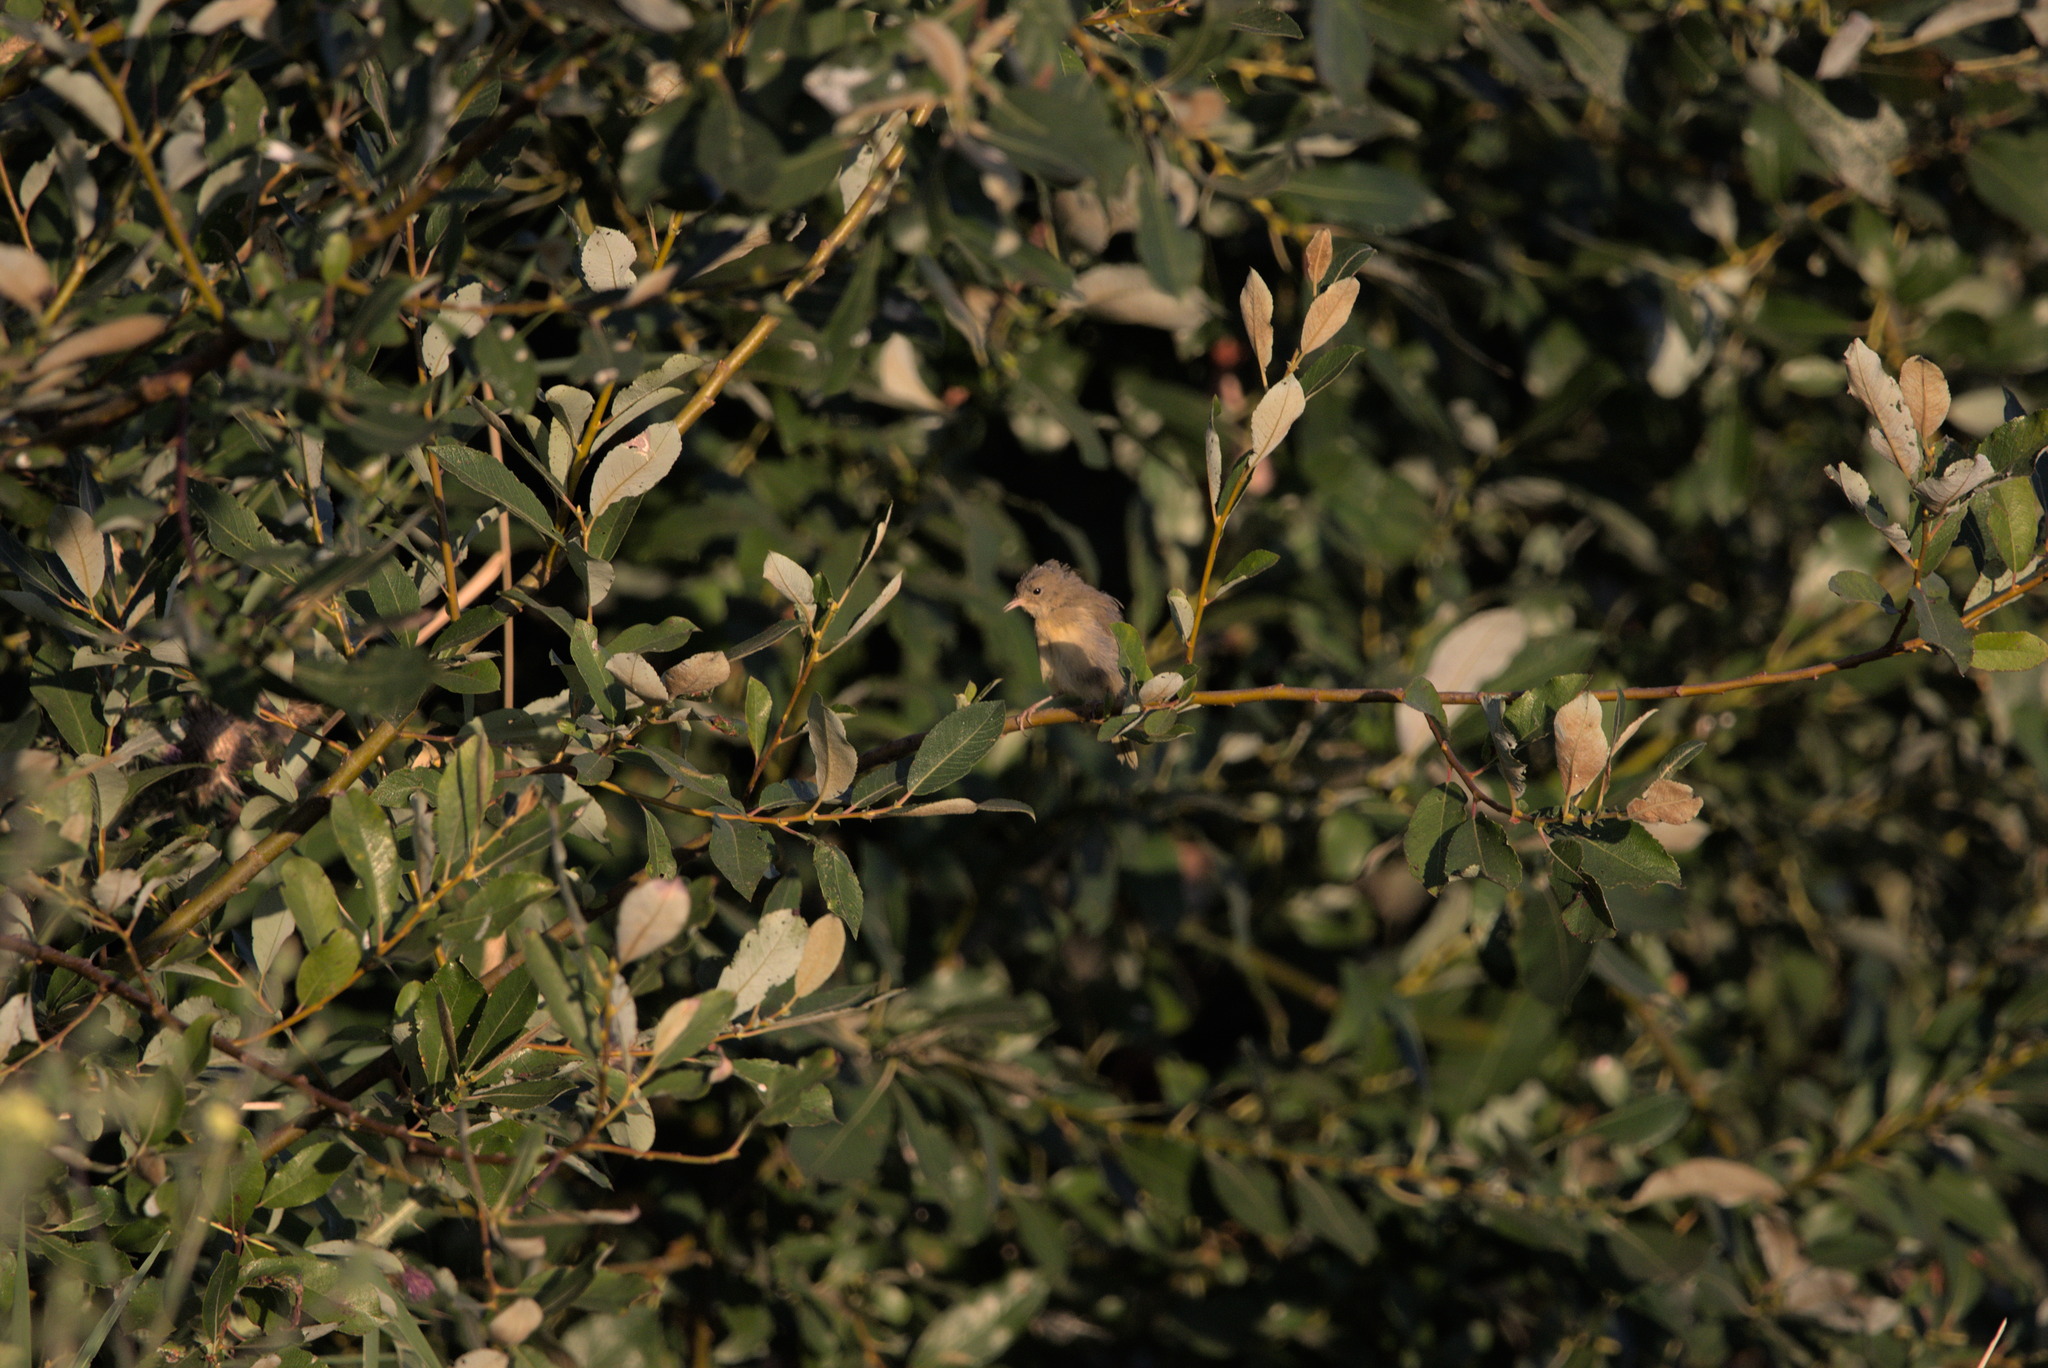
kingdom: Animalia
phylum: Chordata
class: Aves
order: Passeriformes
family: Parulidae
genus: Geothlypis
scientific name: Geothlypis trichas
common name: Common yellowthroat
